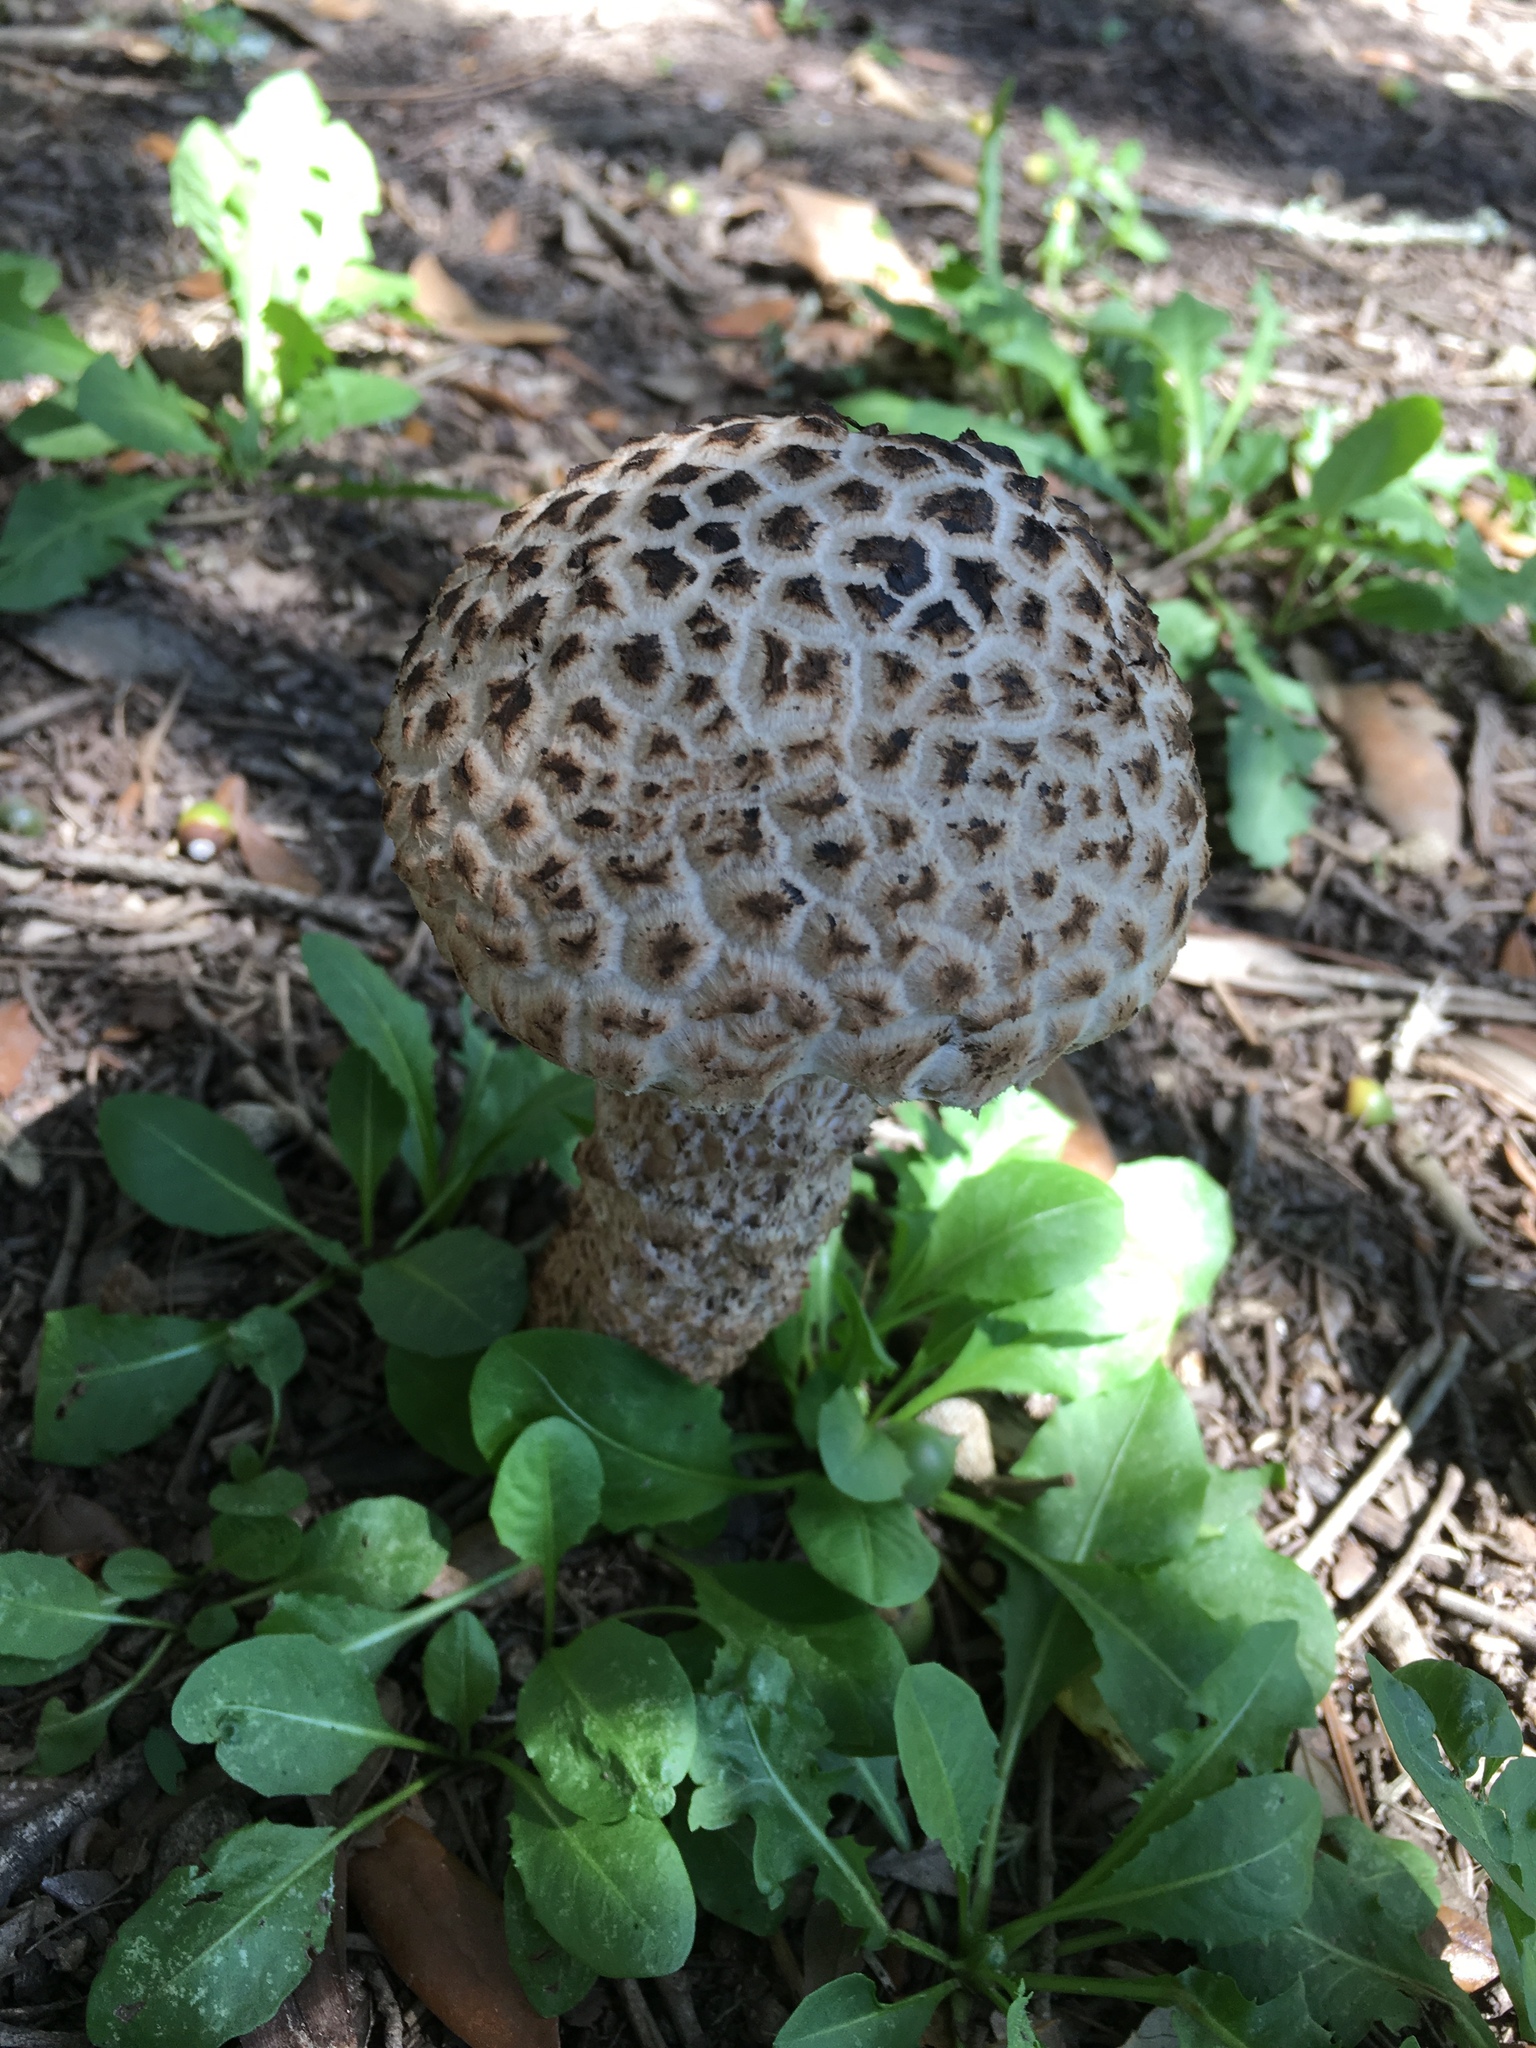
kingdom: Fungi
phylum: Basidiomycota
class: Agaricomycetes
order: Boletales
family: Boletaceae
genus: Strobilomyces
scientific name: Strobilomyces strobilaceus
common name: Old man of the woods
